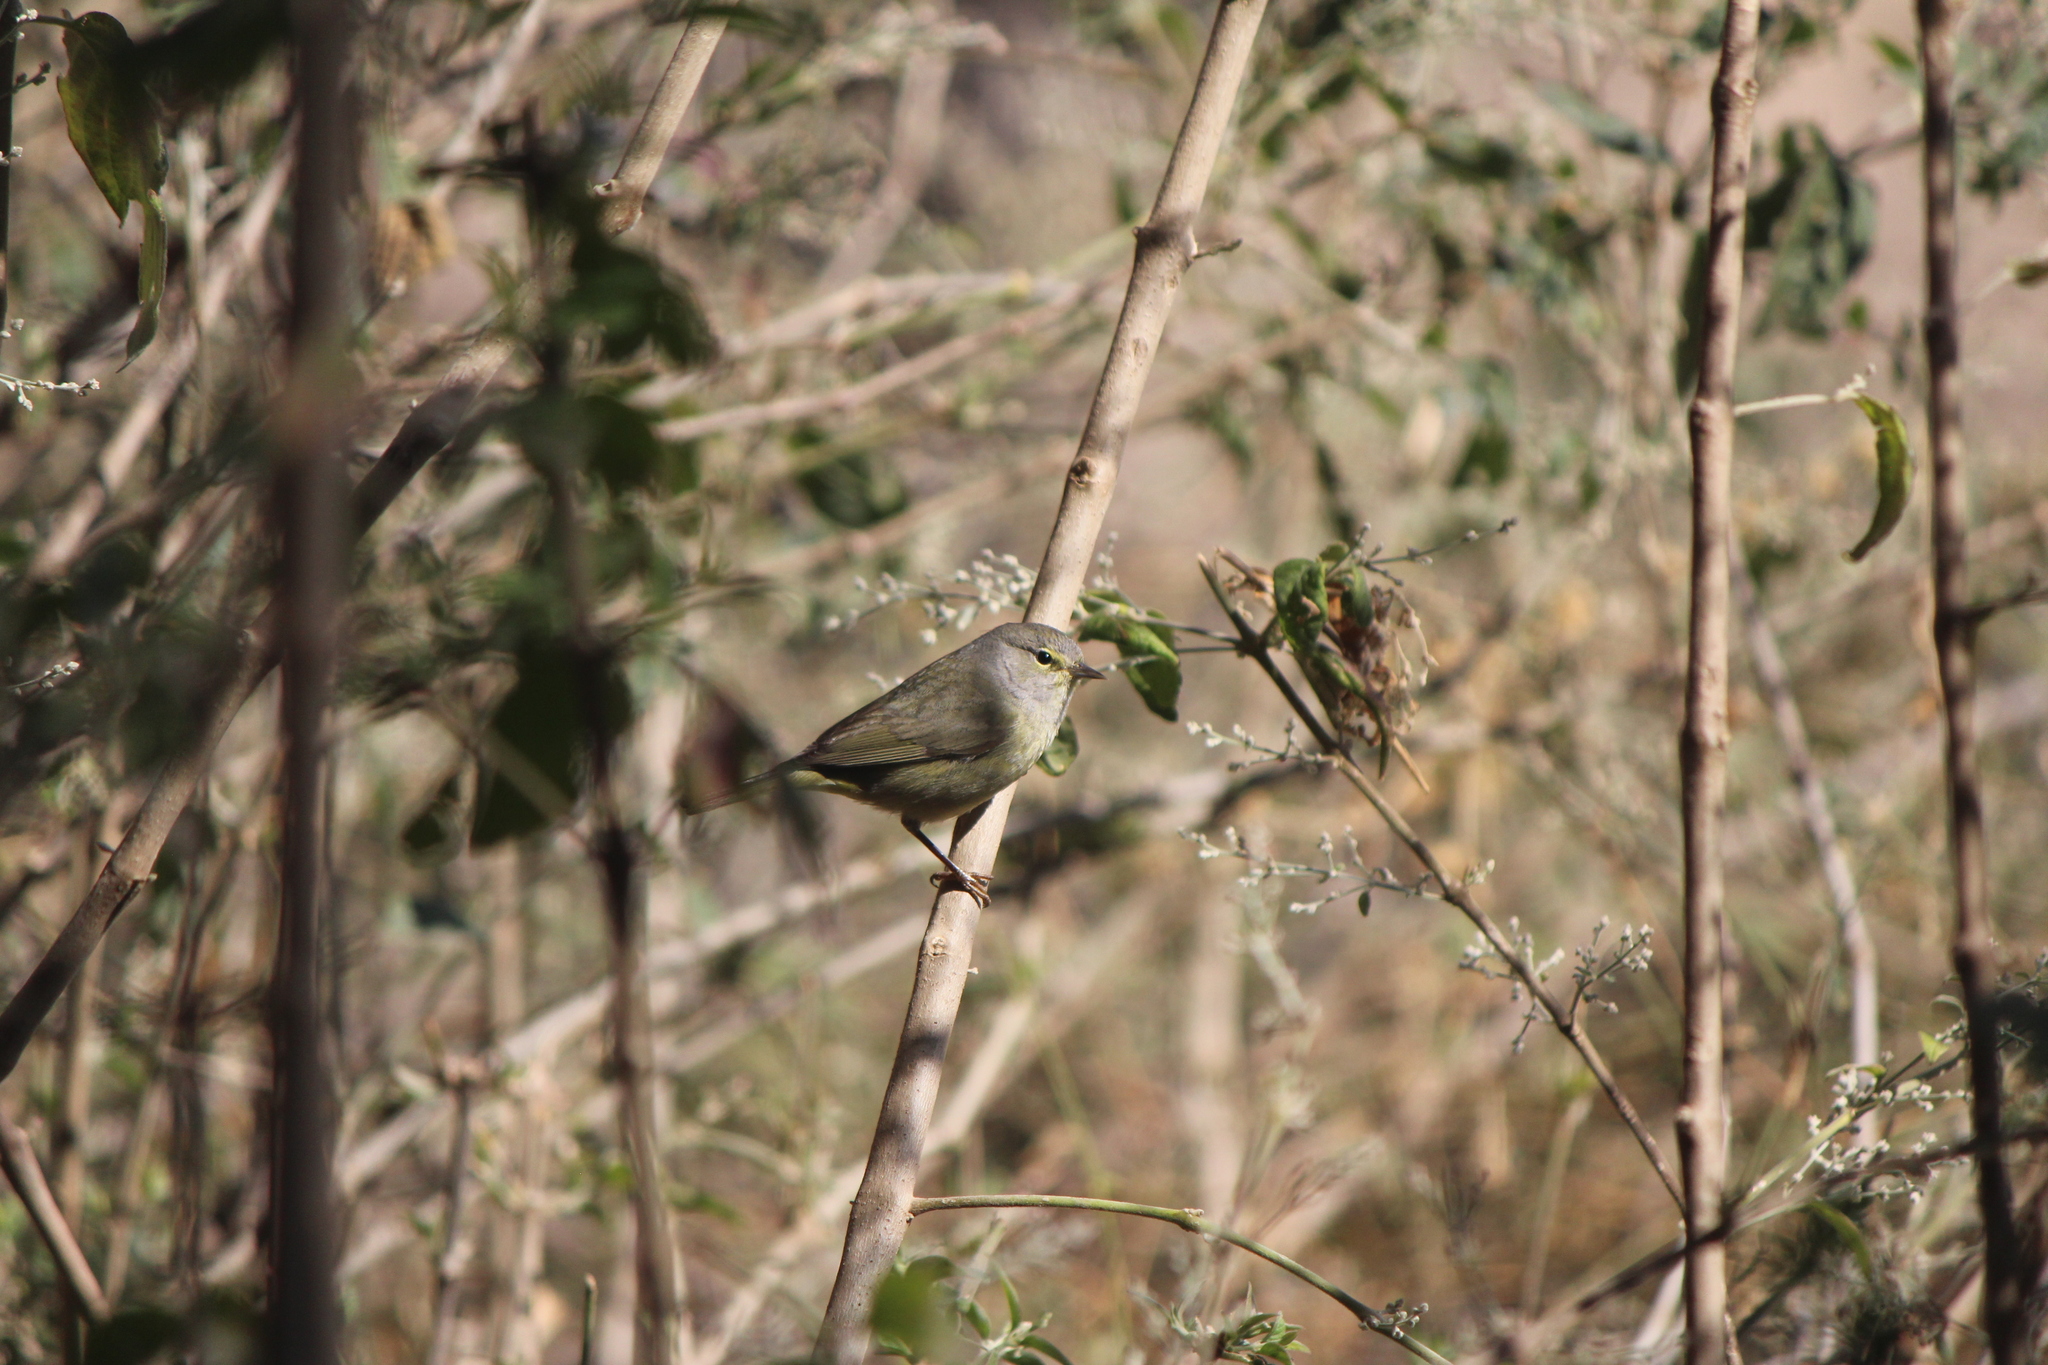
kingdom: Animalia
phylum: Chordata
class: Aves
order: Passeriformes
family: Parulidae
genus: Leiothlypis
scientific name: Leiothlypis celata
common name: Orange-crowned warbler
